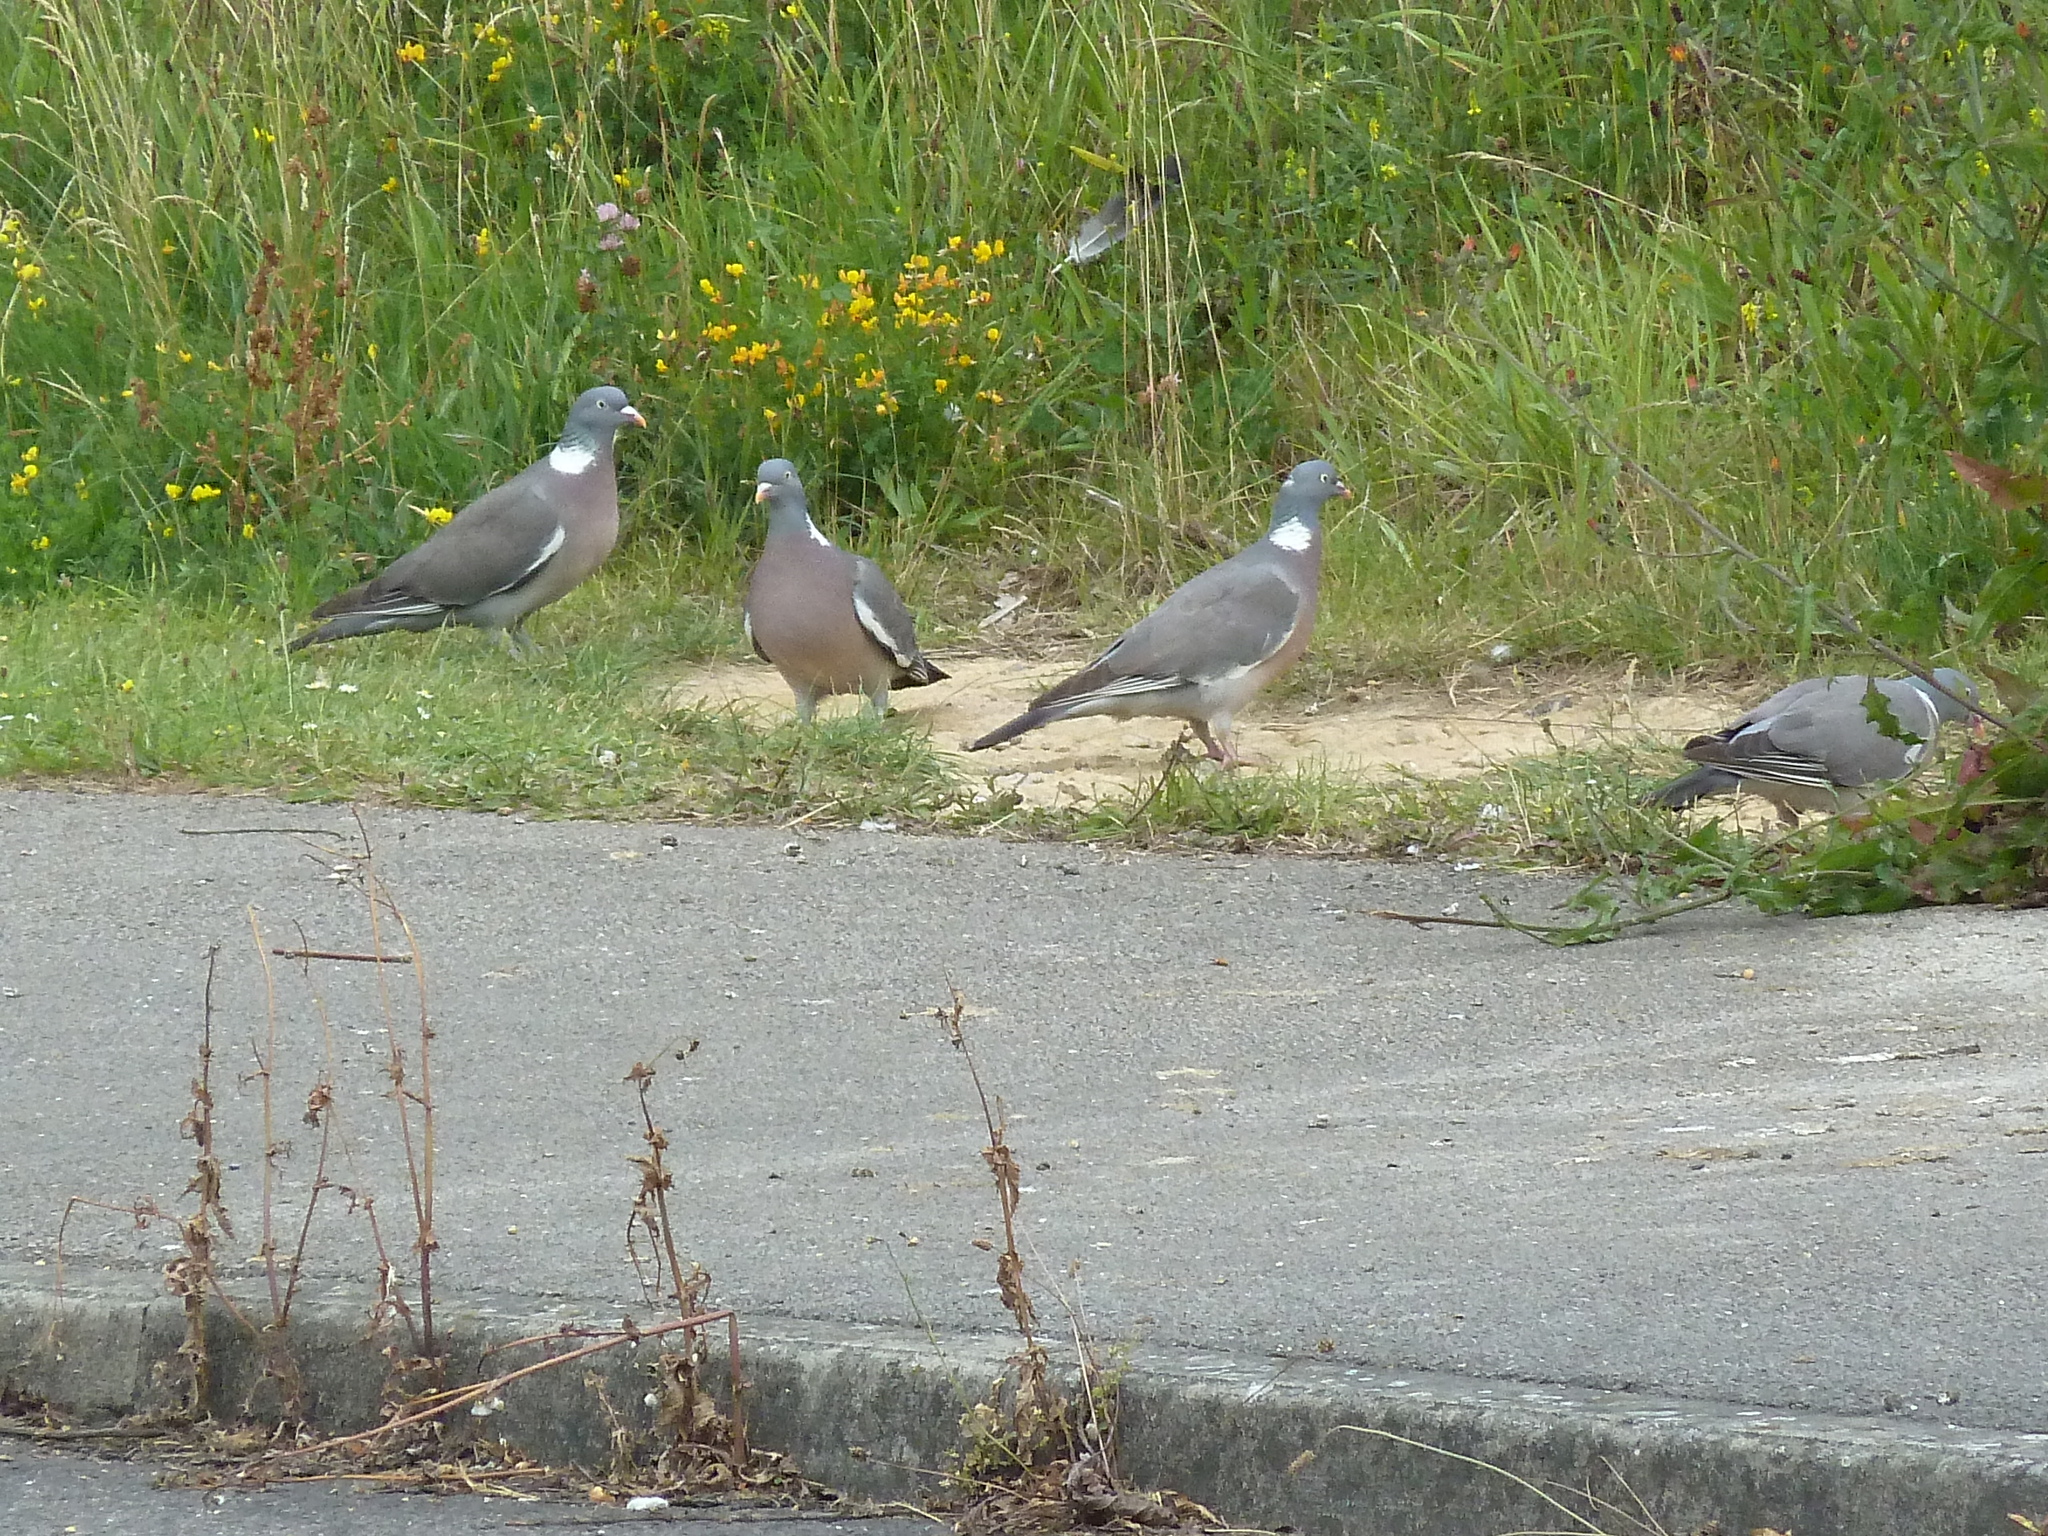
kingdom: Animalia
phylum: Chordata
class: Aves
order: Columbiformes
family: Columbidae
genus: Columba
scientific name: Columba palumbus
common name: Common wood pigeon
